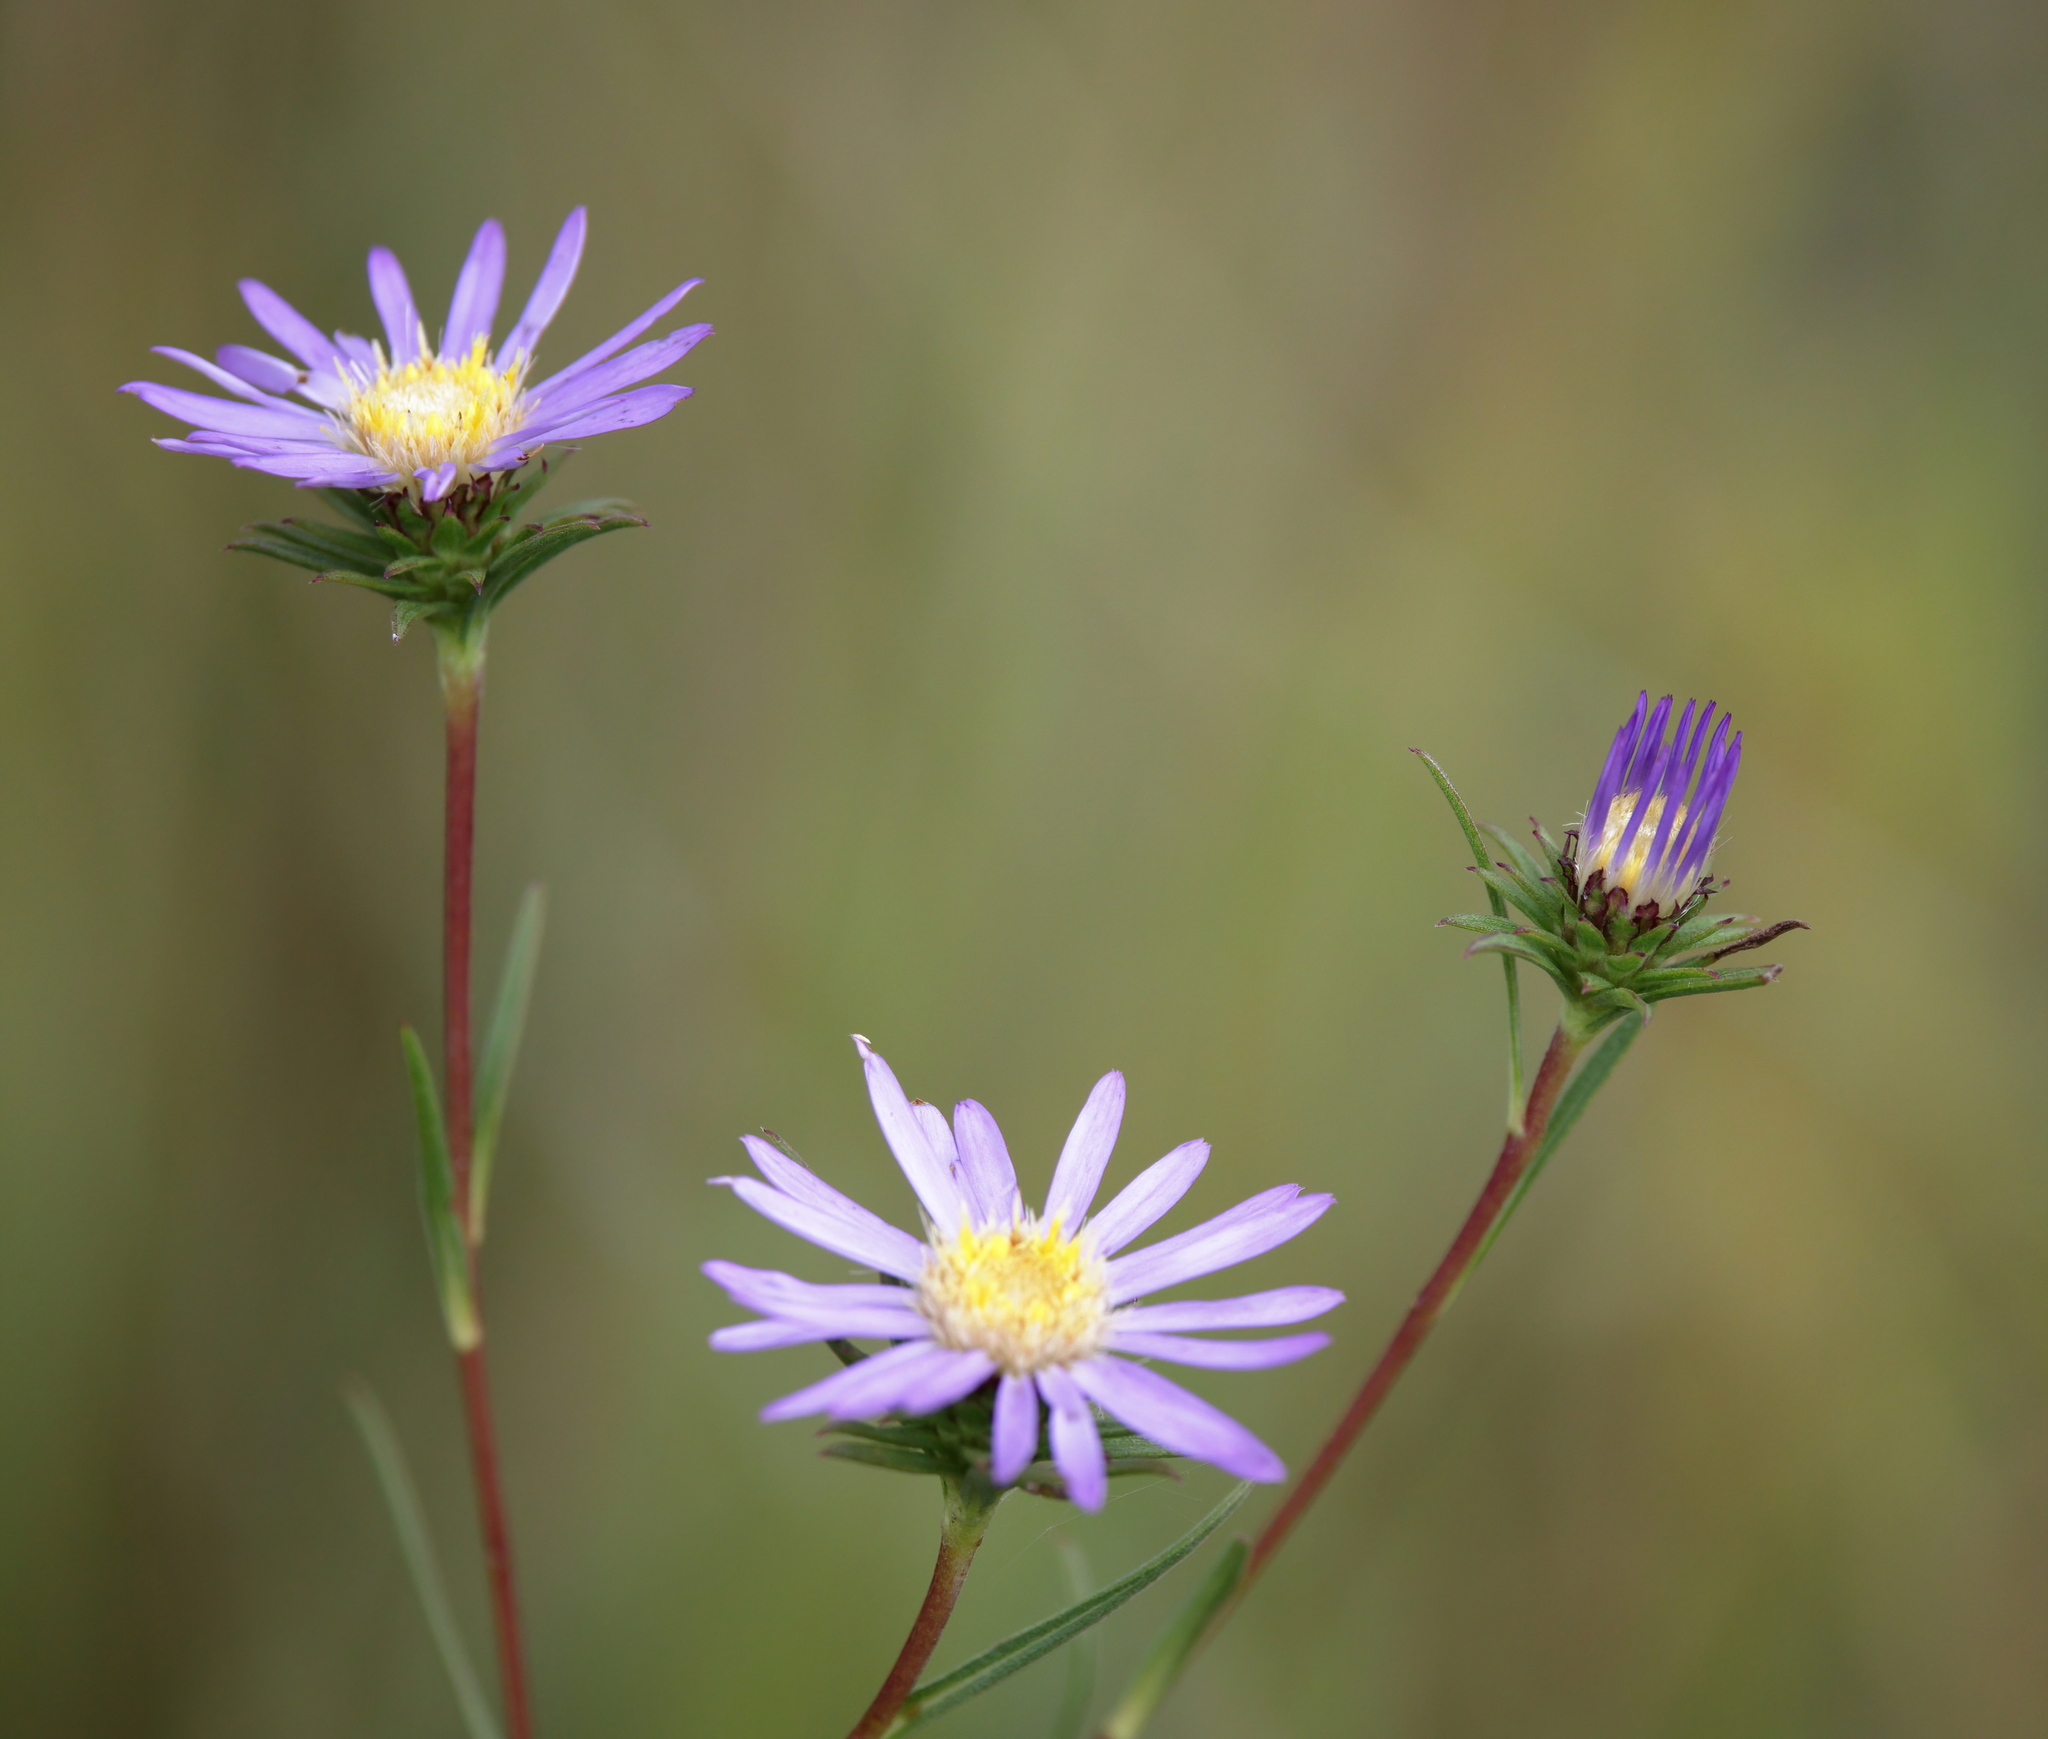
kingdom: Plantae
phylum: Tracheophyta
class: Magnoliopsida
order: Asterales
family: Asteraceae
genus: Eurybia
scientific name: Eurybia hemispherica
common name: Showy aster
